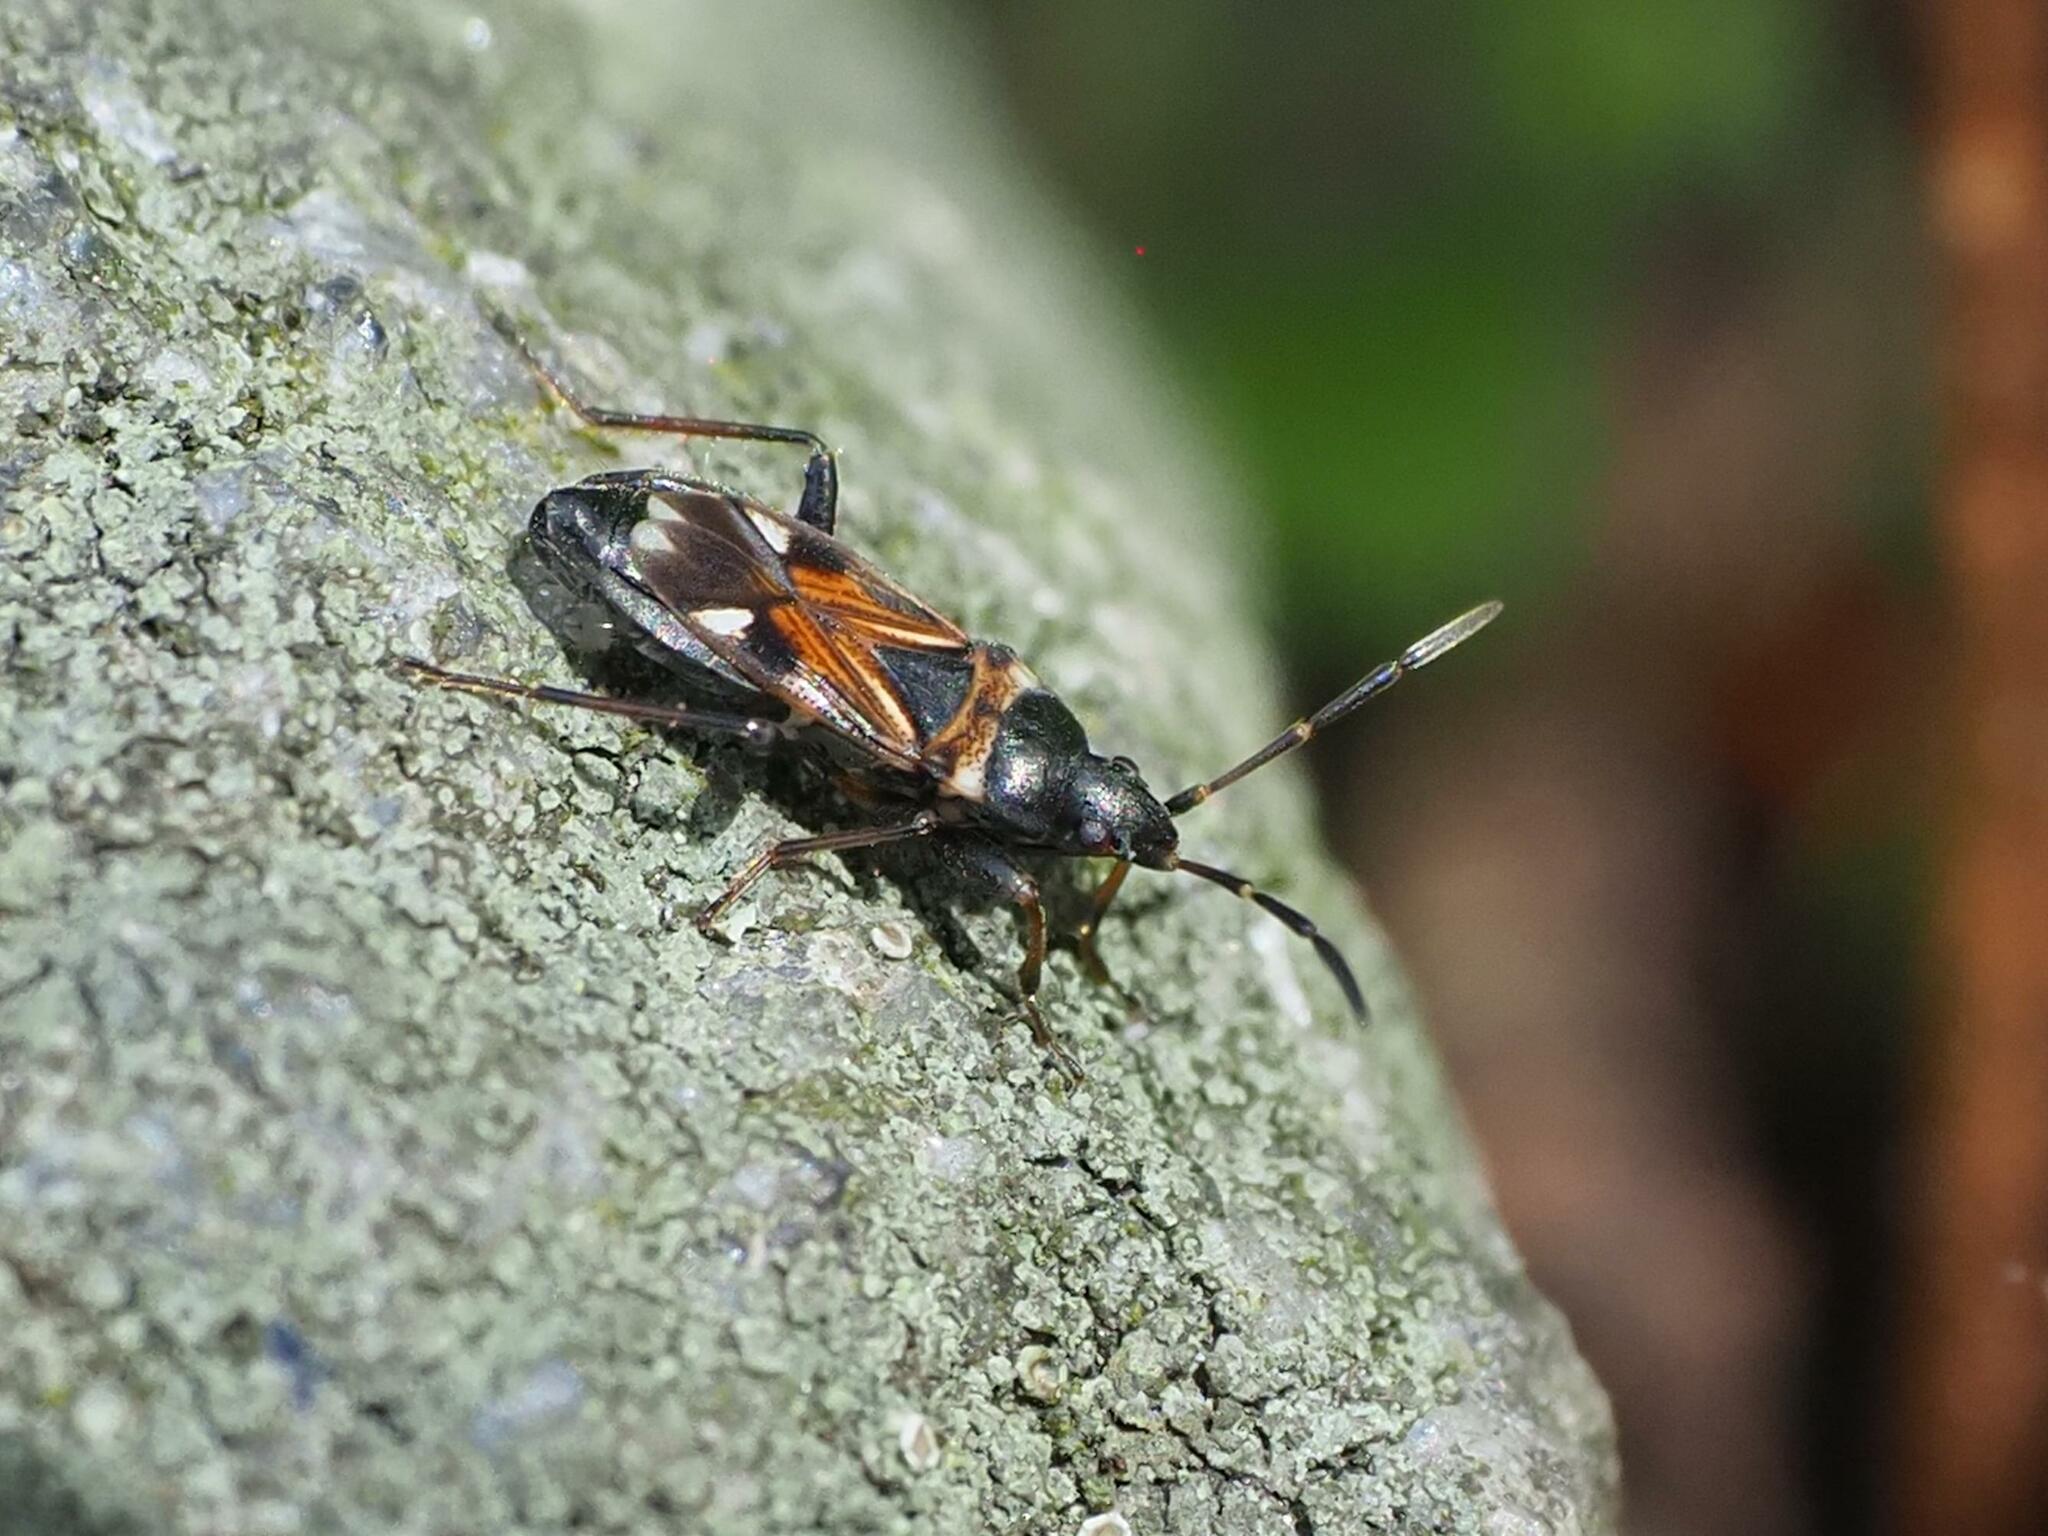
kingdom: Animalia
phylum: Arthropoda
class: Insecta
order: Hemiptera
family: Rhyparochromidae
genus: Raglius
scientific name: Raglius alboacuminatus
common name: Dirt-colored seed bug
